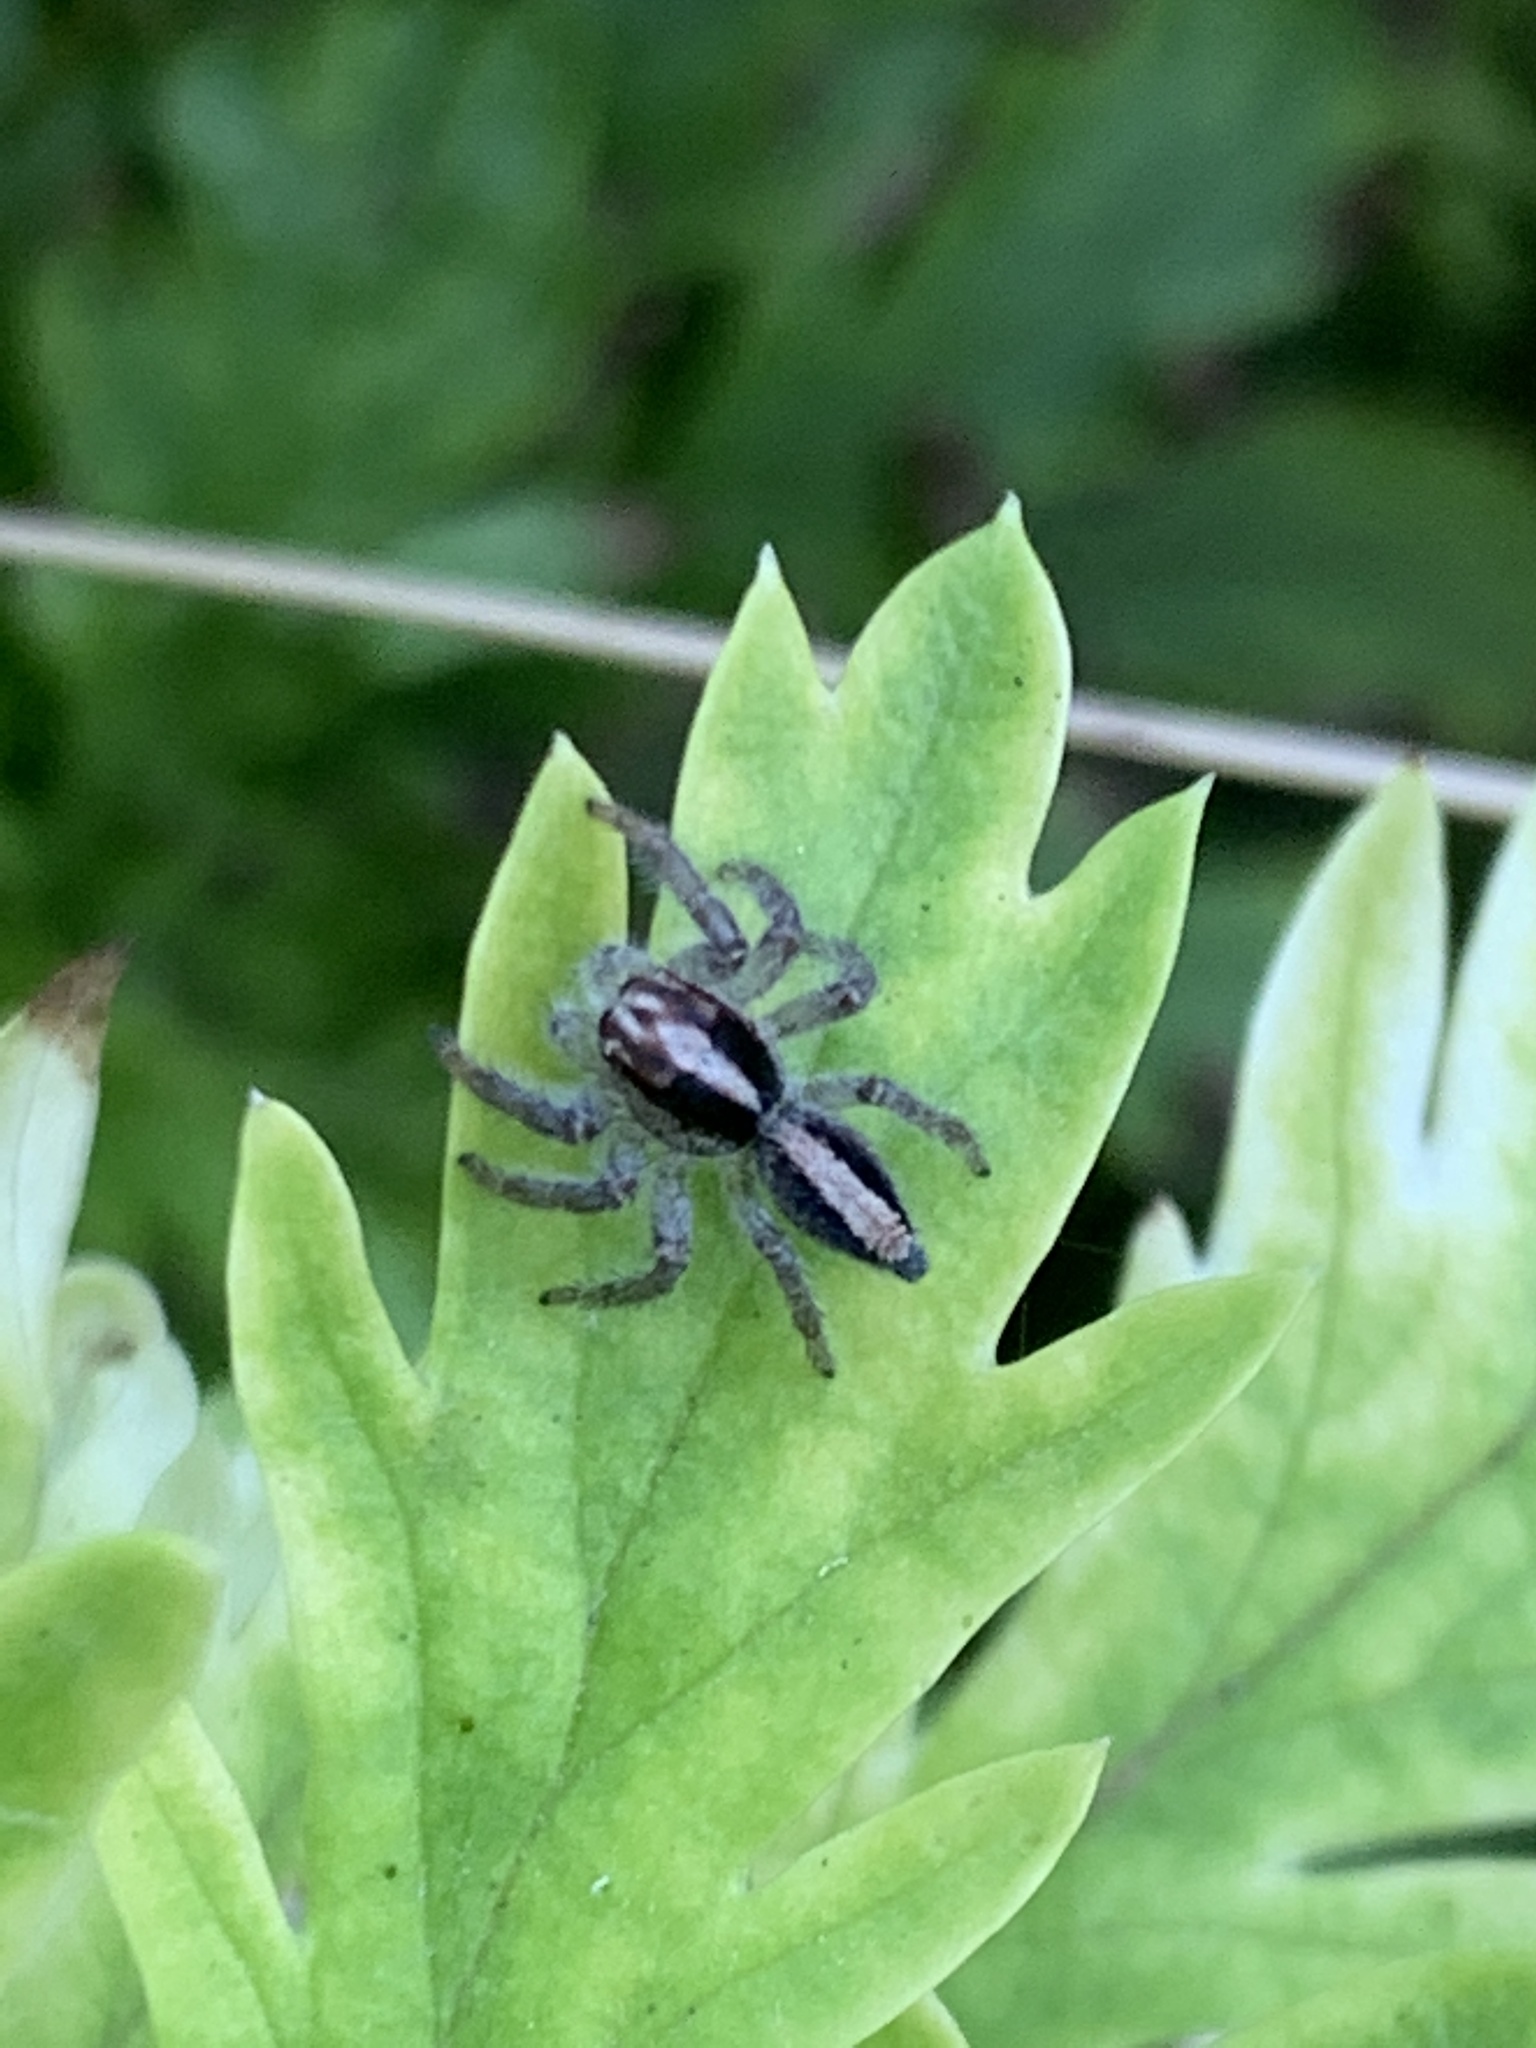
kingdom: Animalia
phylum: Arthropoda
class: Arachnida
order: Araneae
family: Salticidae
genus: Megafreya
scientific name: Megafreya sutrix
